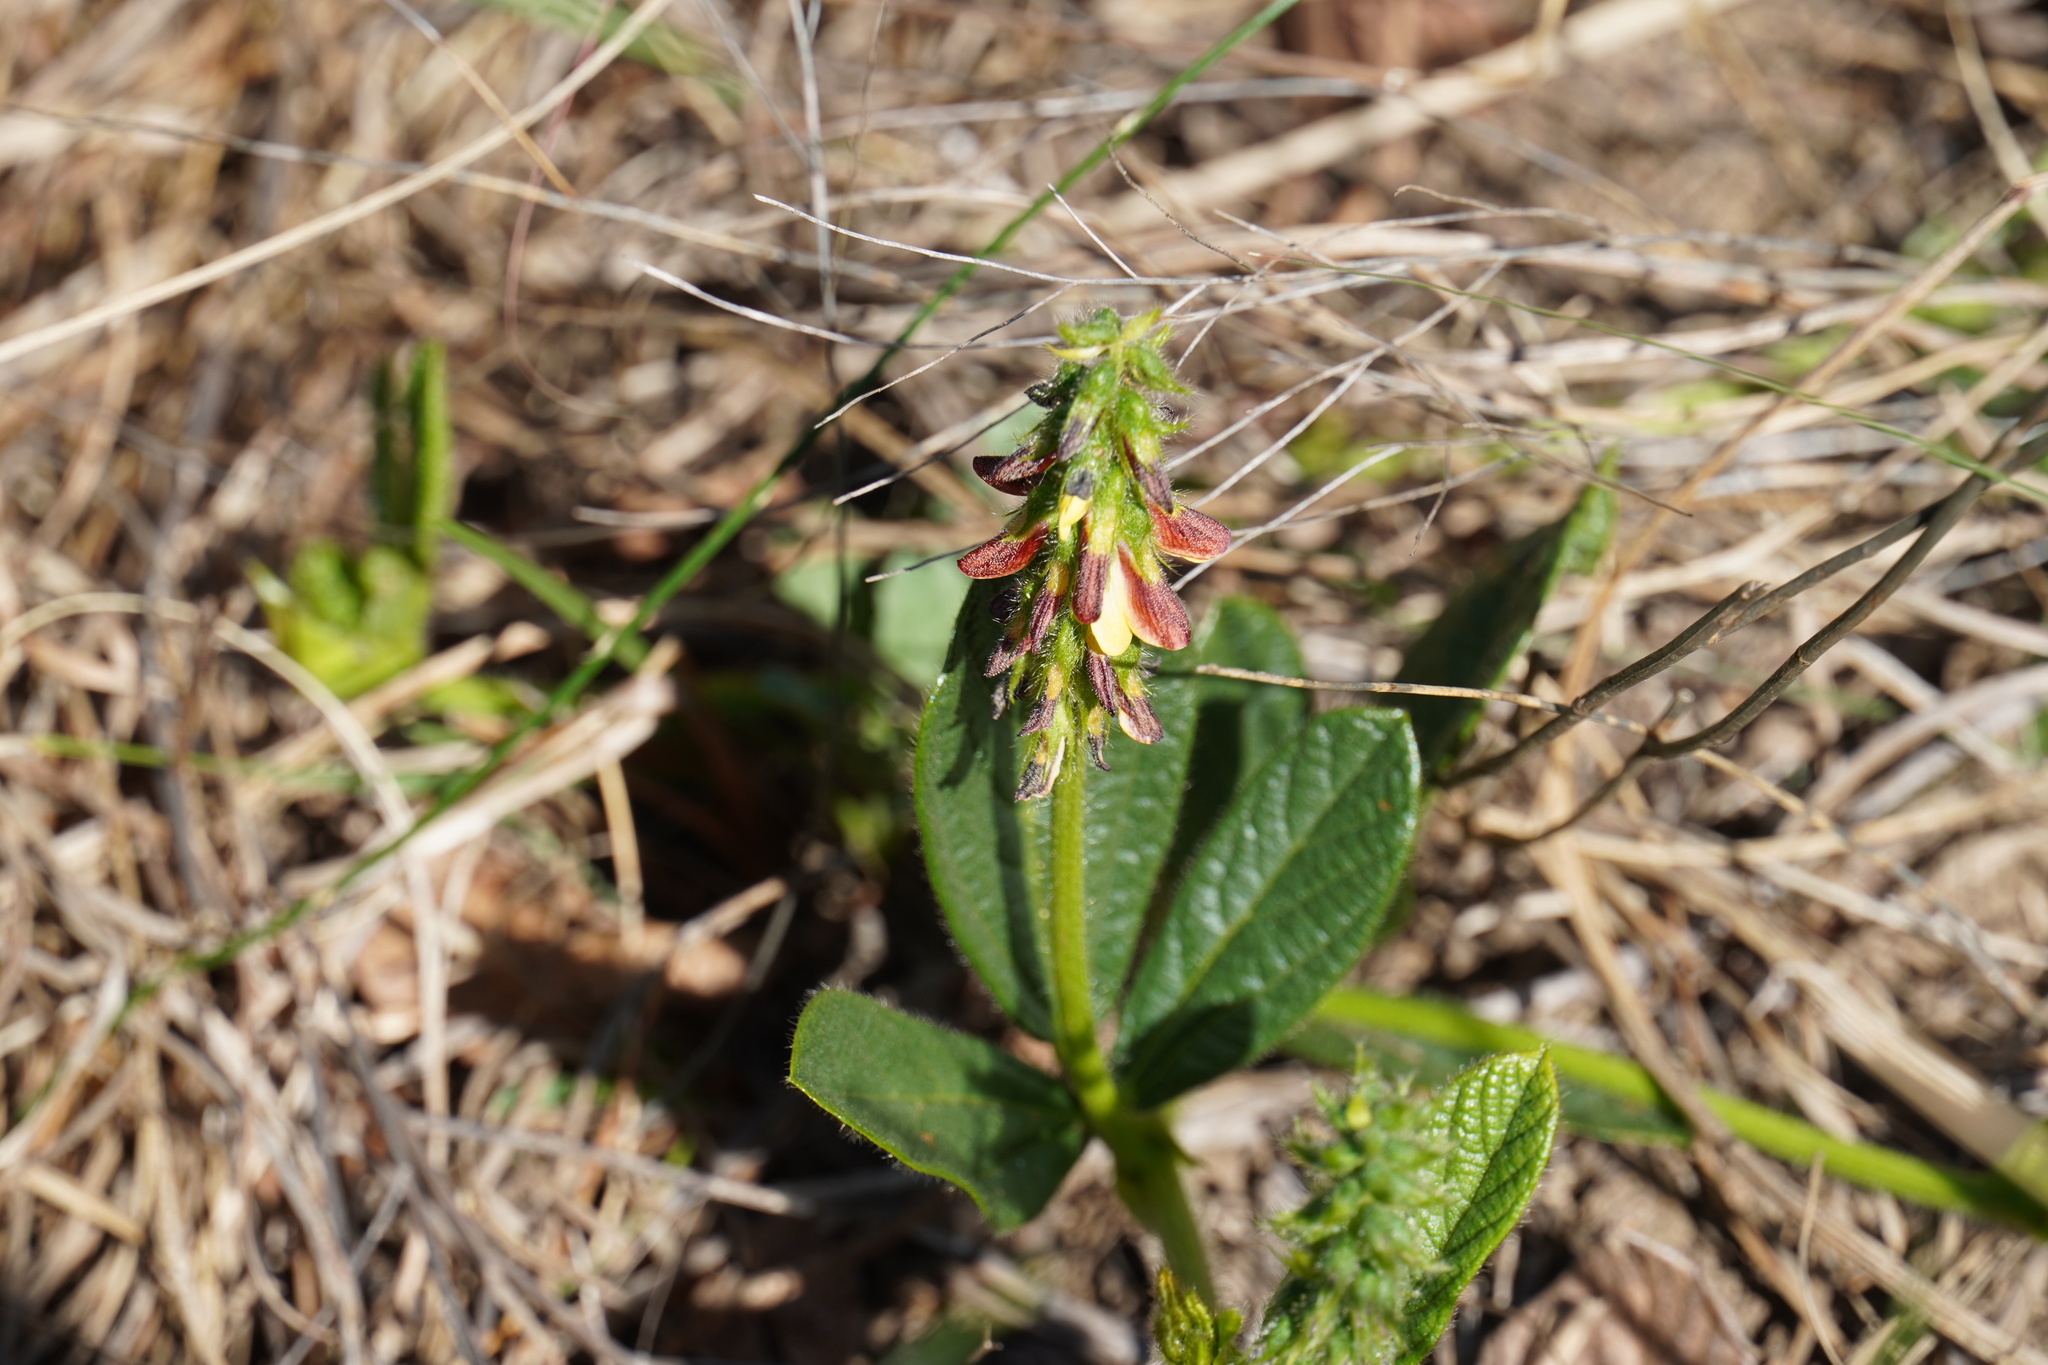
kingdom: Plantae
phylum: Tracheophyta
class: Magnoliopsida
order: Fabales
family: Fabaceae
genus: Eriosema
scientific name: Eriosema cordatum
